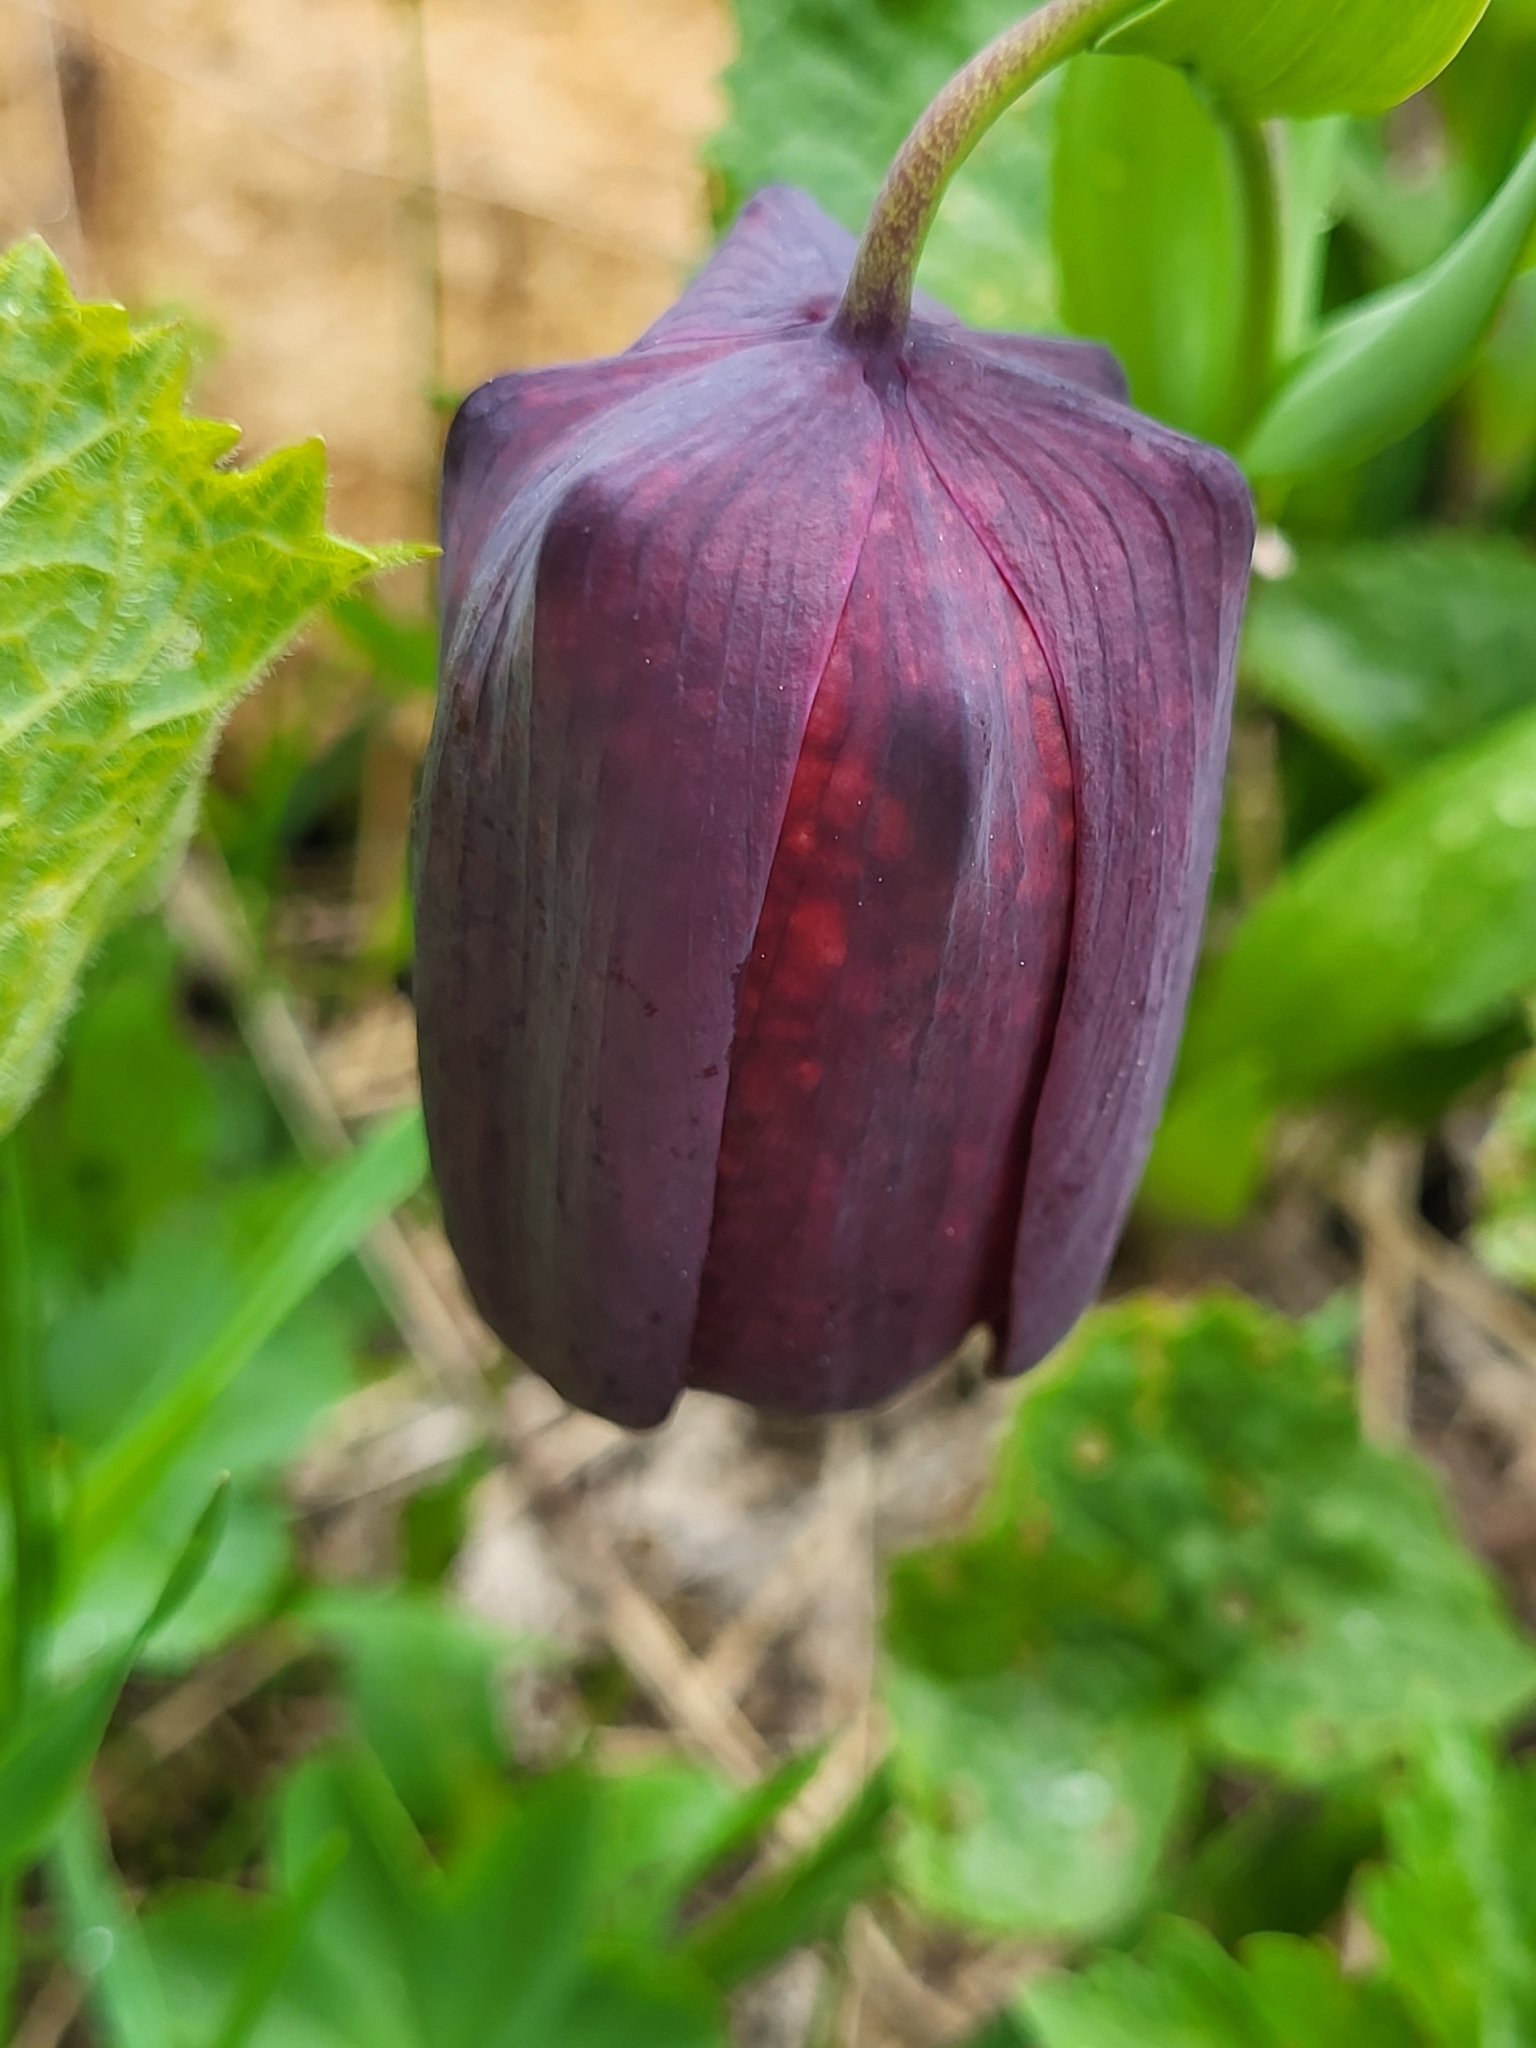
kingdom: Plantae
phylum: Tracheophyta
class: Liliopsida
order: Liliales
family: Liliaceae
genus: Fritillaria
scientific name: Fritillaria latifolia
